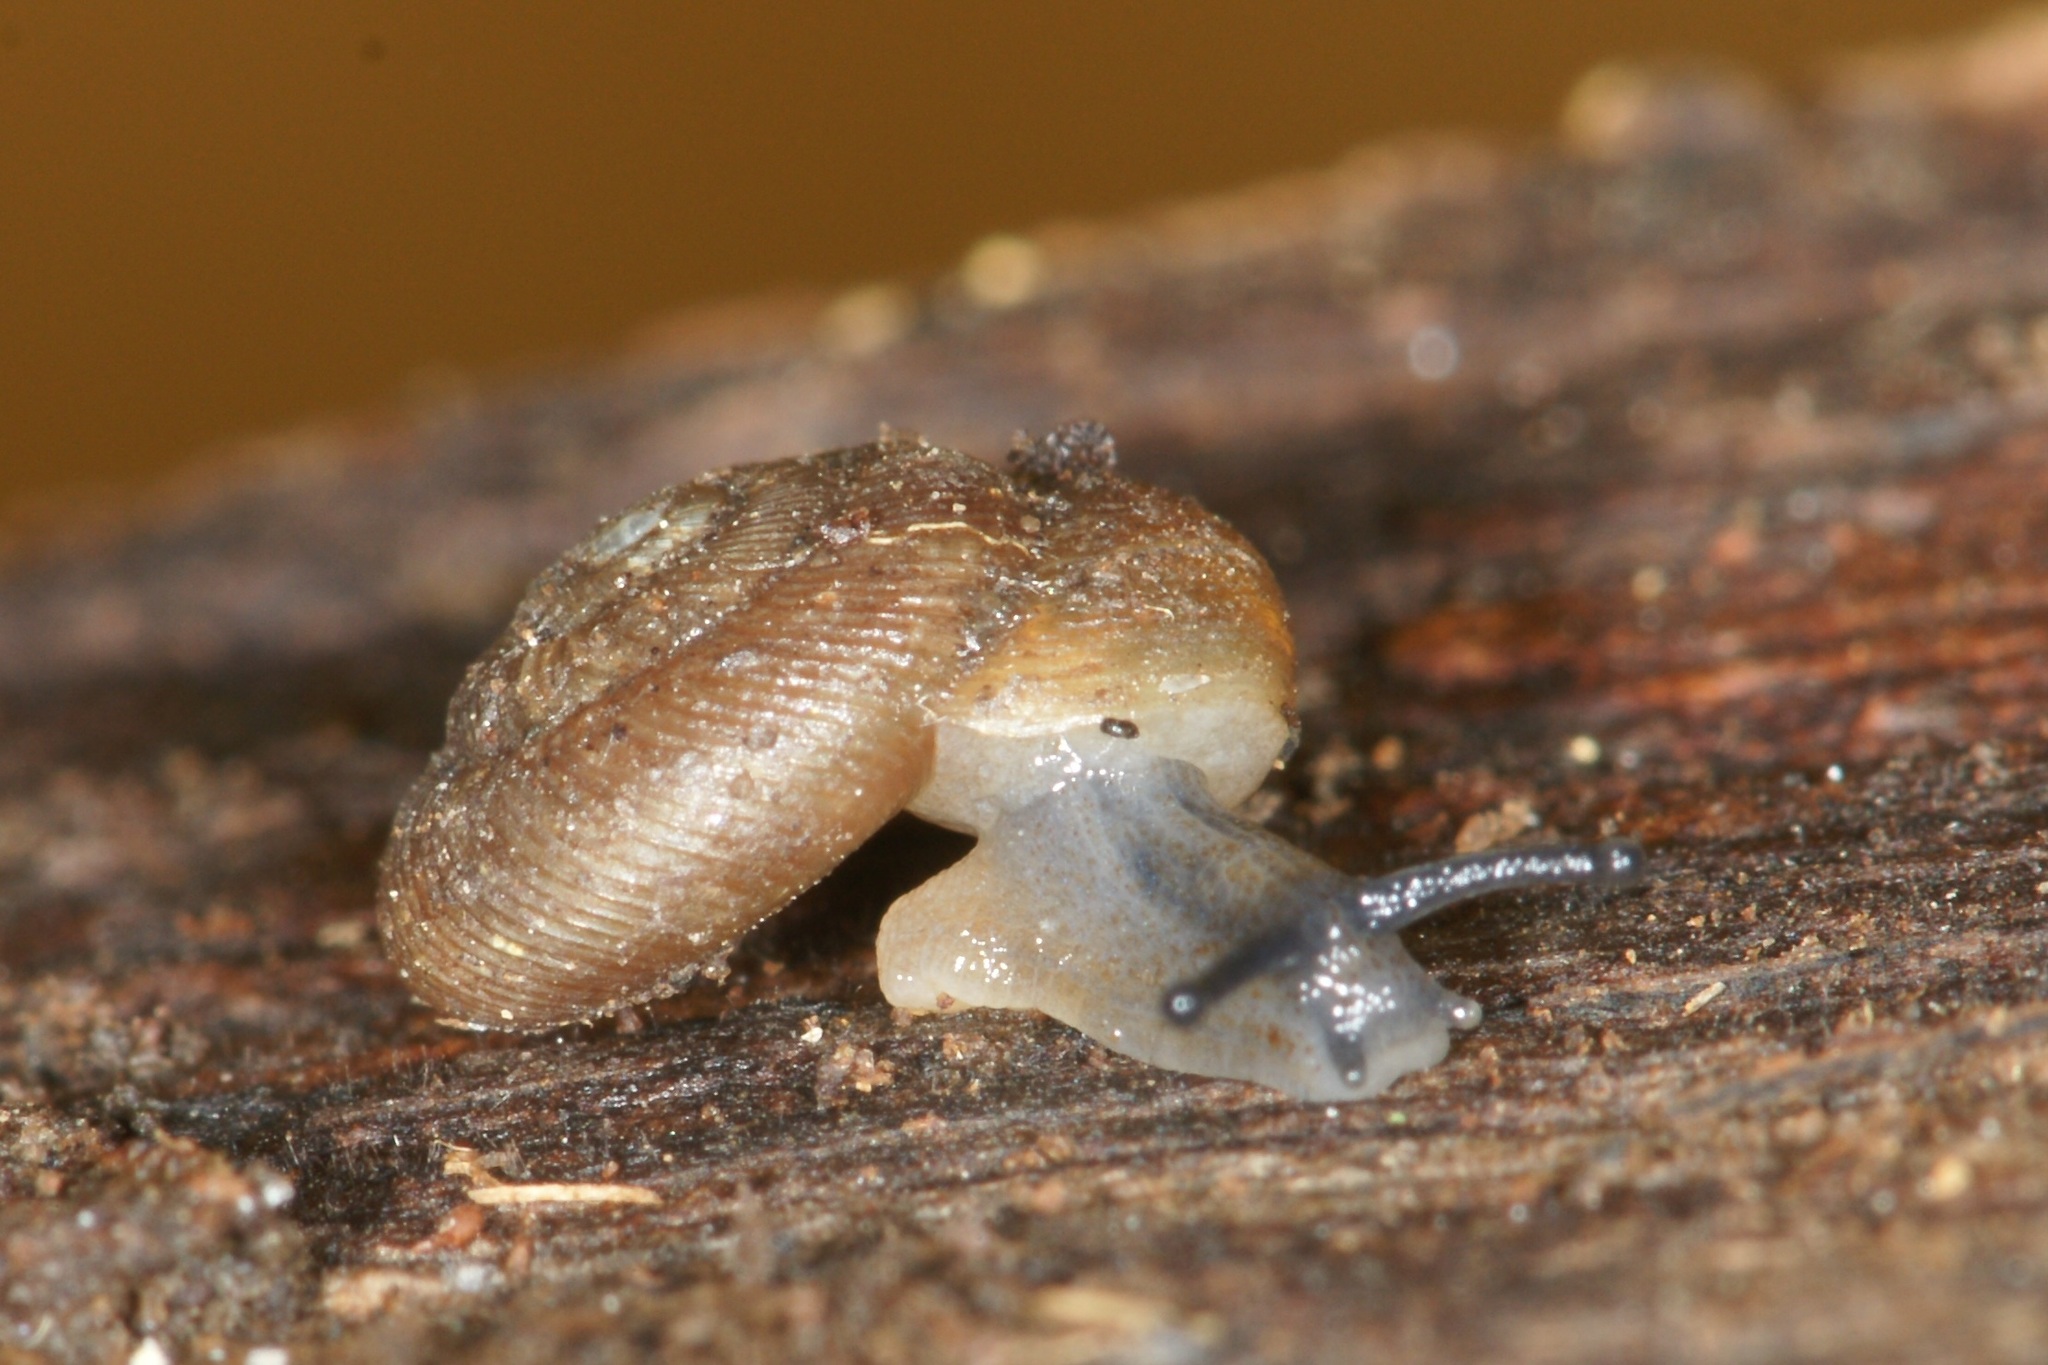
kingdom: Animalia
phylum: Mollusca
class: Gastropoda
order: Stylommatophora
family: Discidae
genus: Discus
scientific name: Discus ruderatus
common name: Brown disc snail
